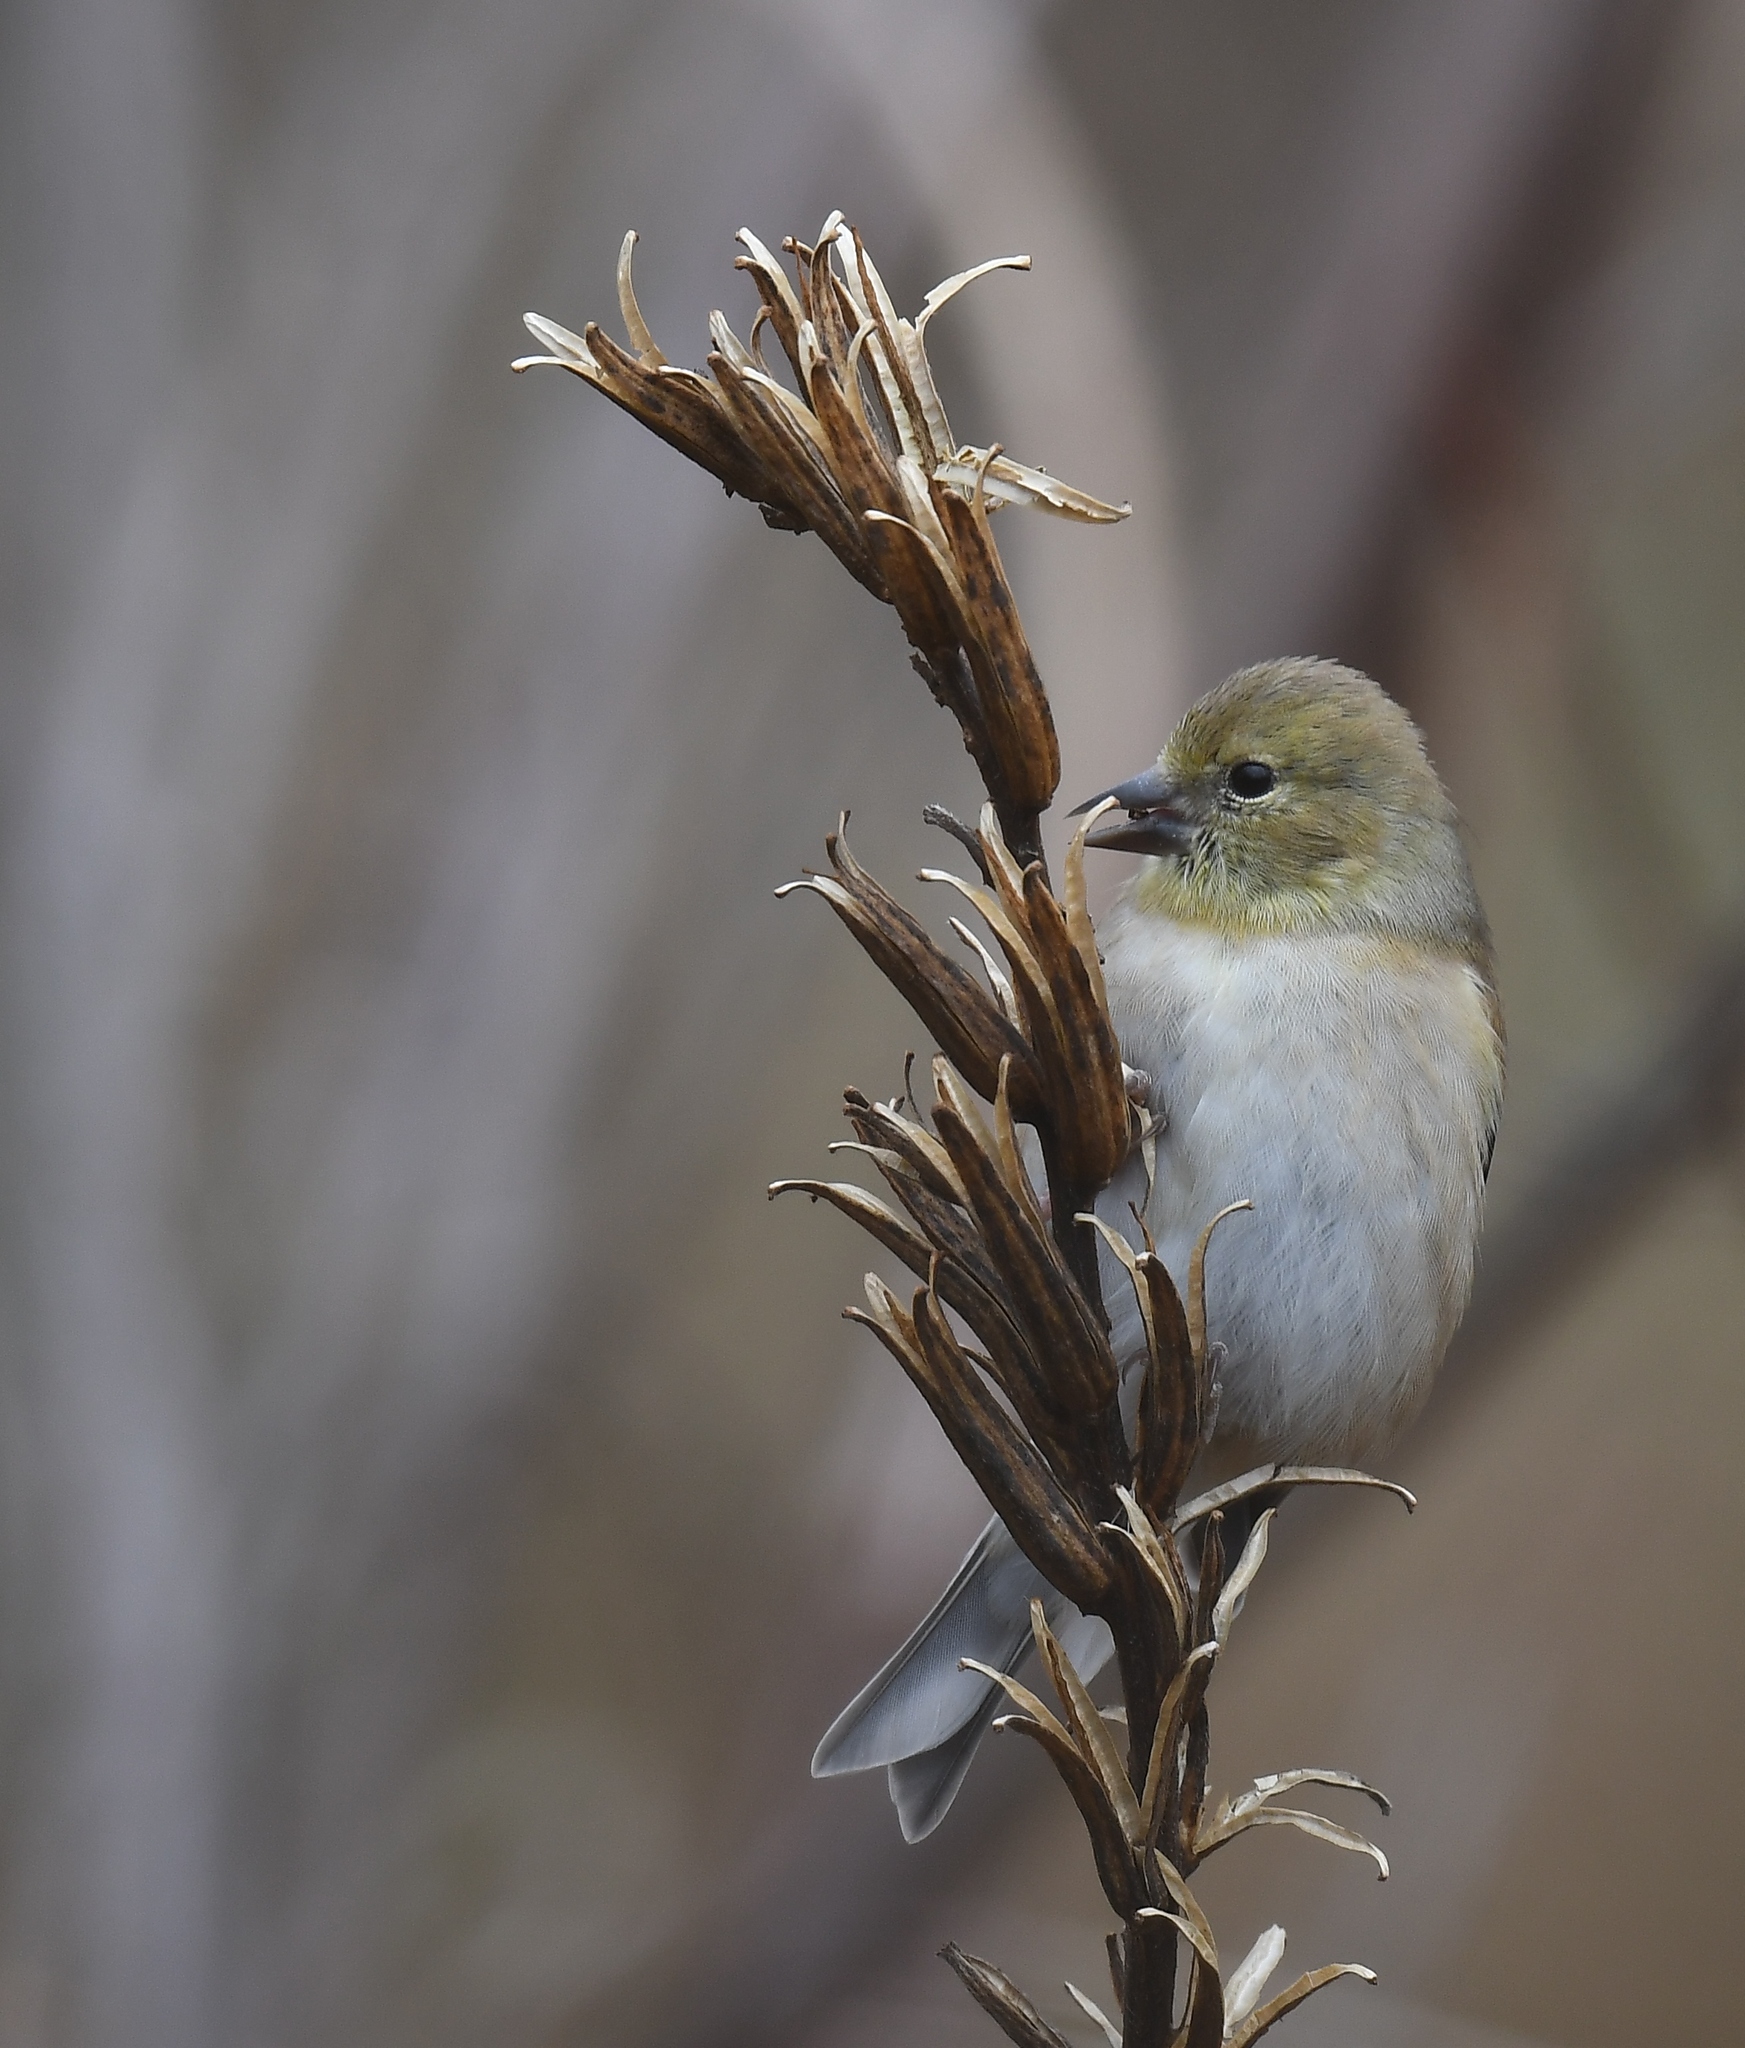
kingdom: Animalia
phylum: Chordata
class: Aves
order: Passeriformes
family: Fringillidae
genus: Spinus
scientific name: Spinus tristis
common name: American goldfinch
